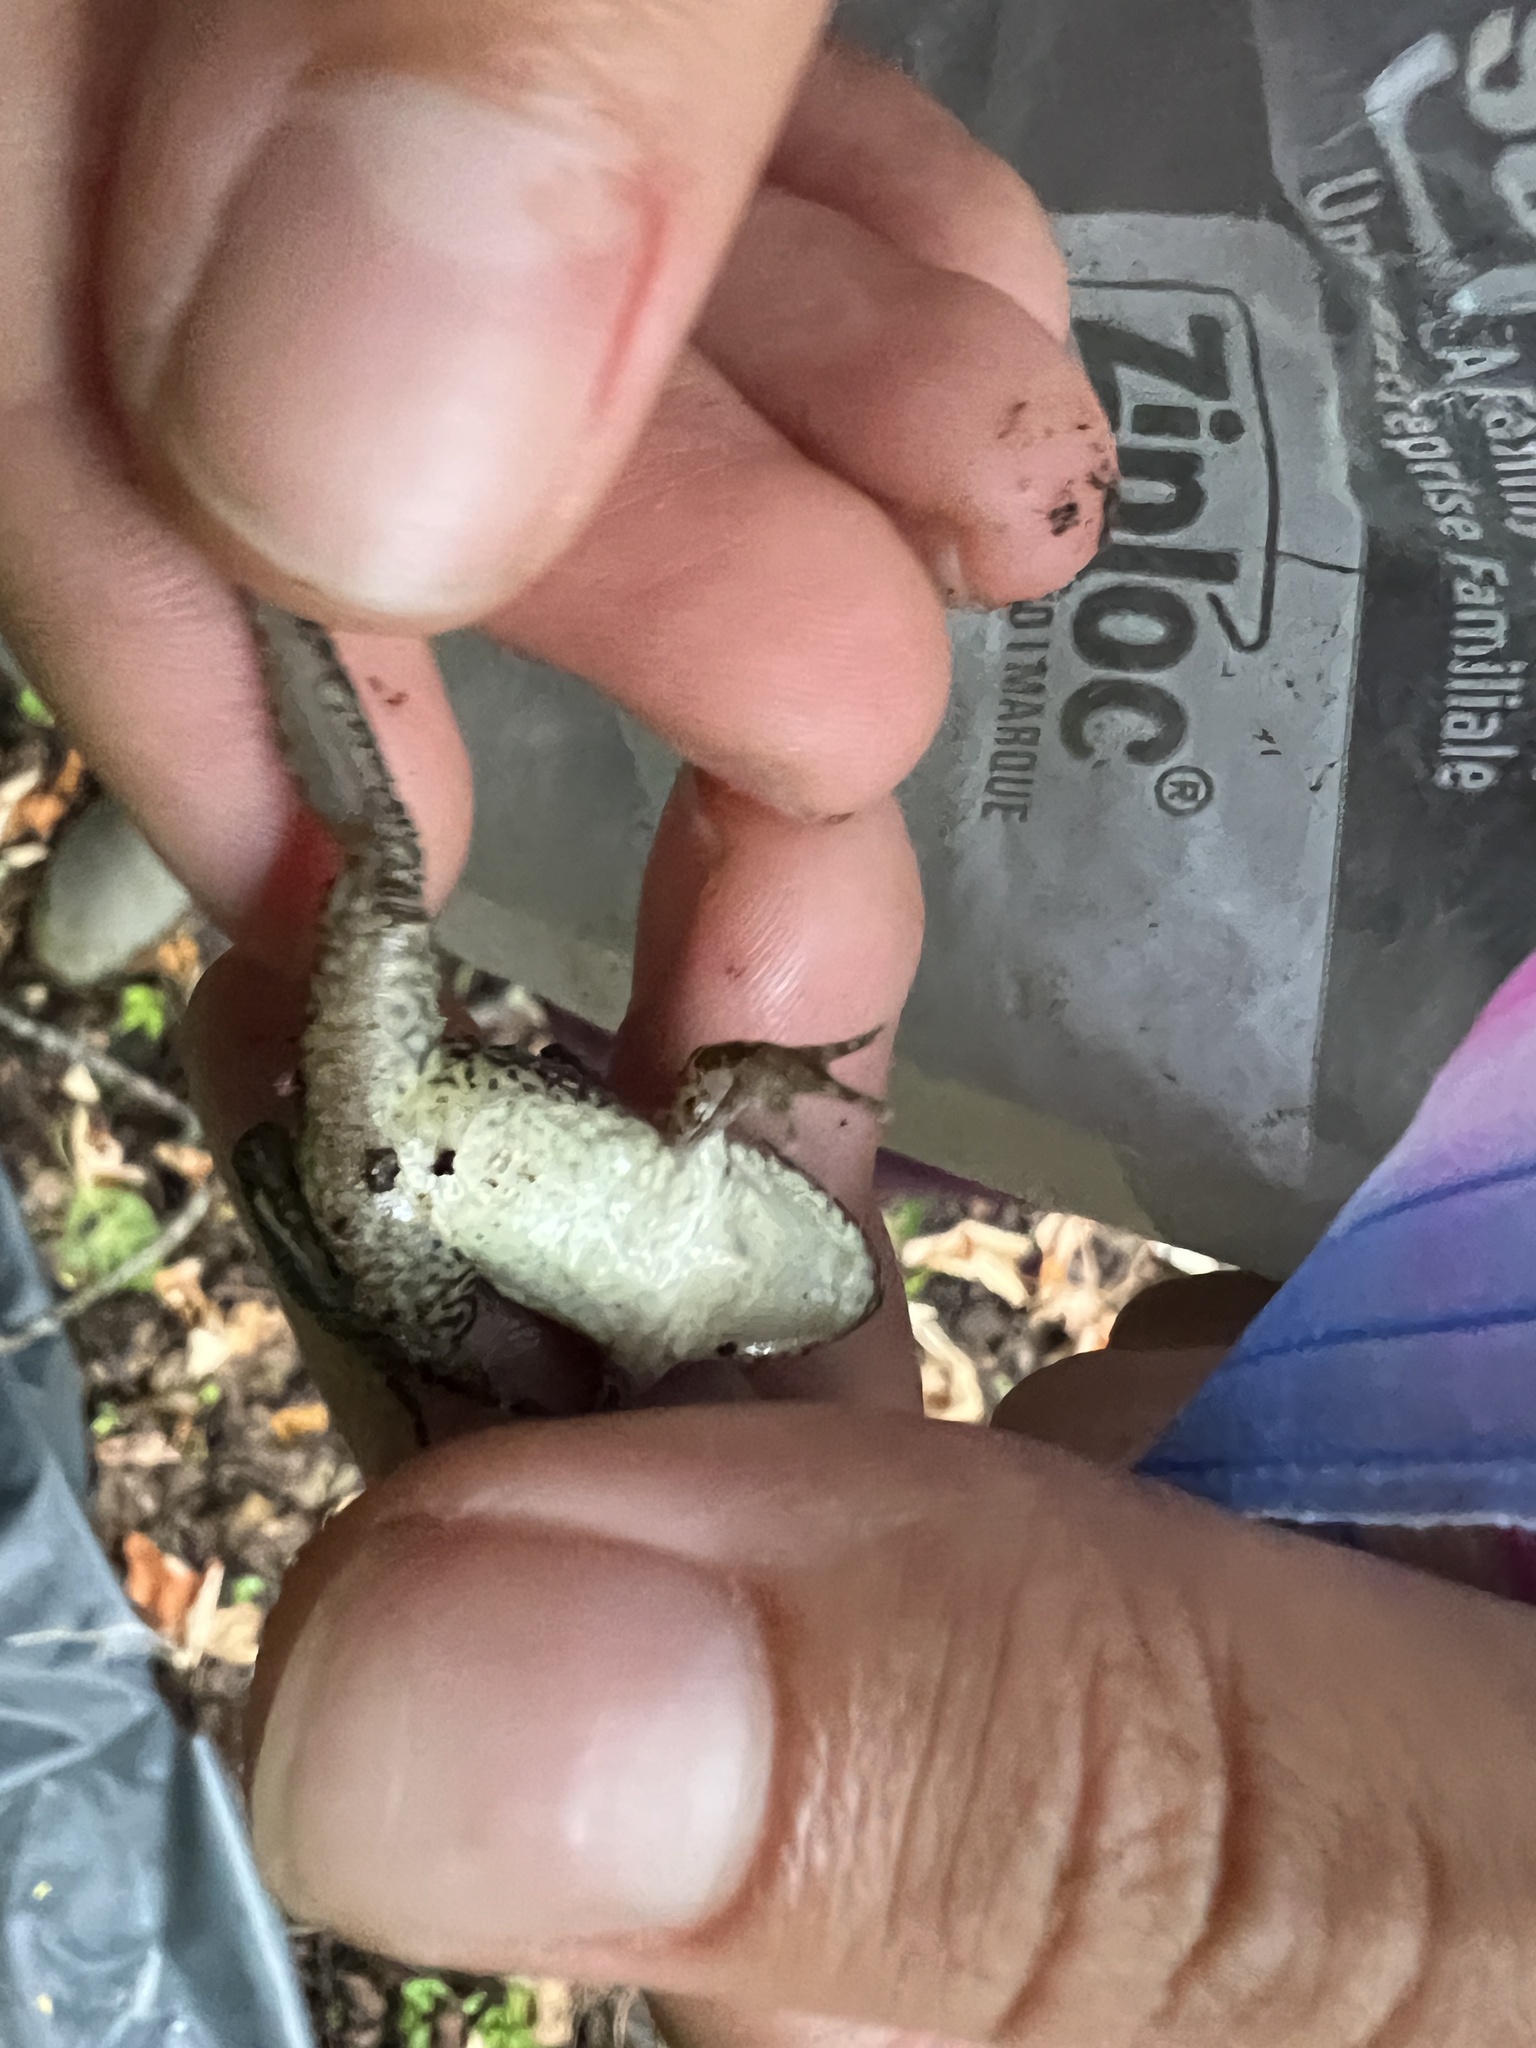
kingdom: Animalia
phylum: Chordata
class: Amphibia
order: Anura
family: Leptodactylidae
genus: Leptodactylus
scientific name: Leptodactylus latrans
